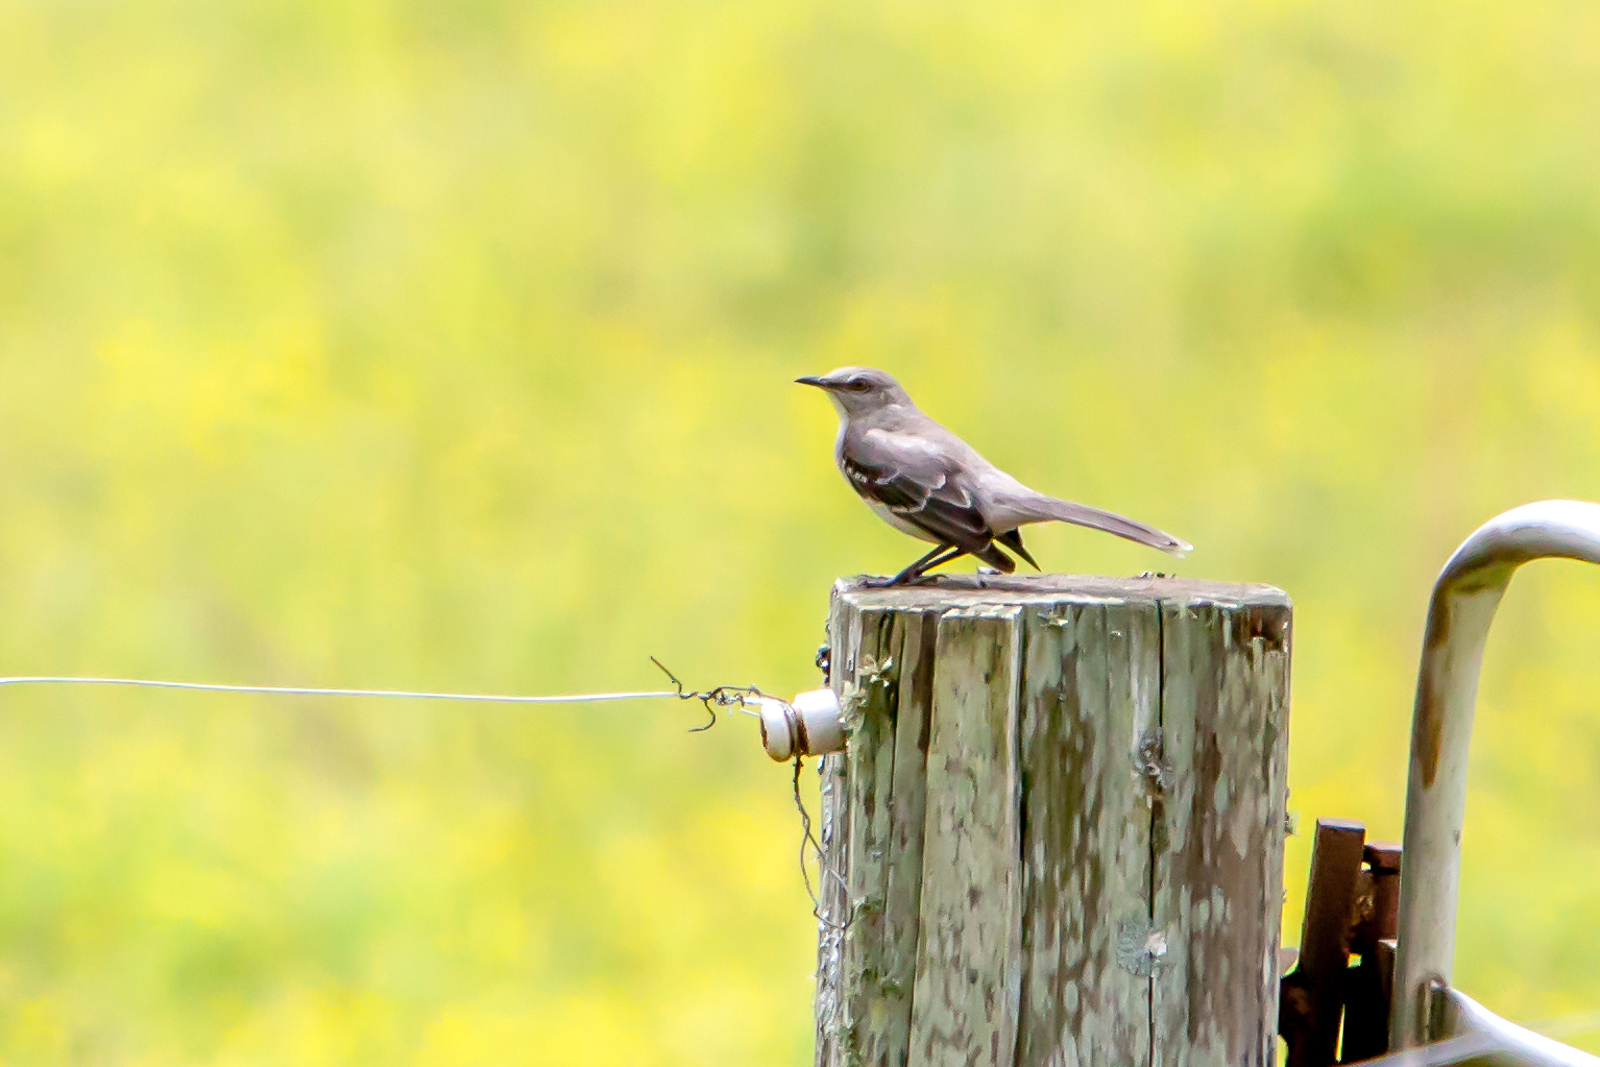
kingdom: Animalia
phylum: Chordata
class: Aves
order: Passeriformes
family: Mimidae
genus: Mimus
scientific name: Mimus polyglottos
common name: Northern mockingbird
